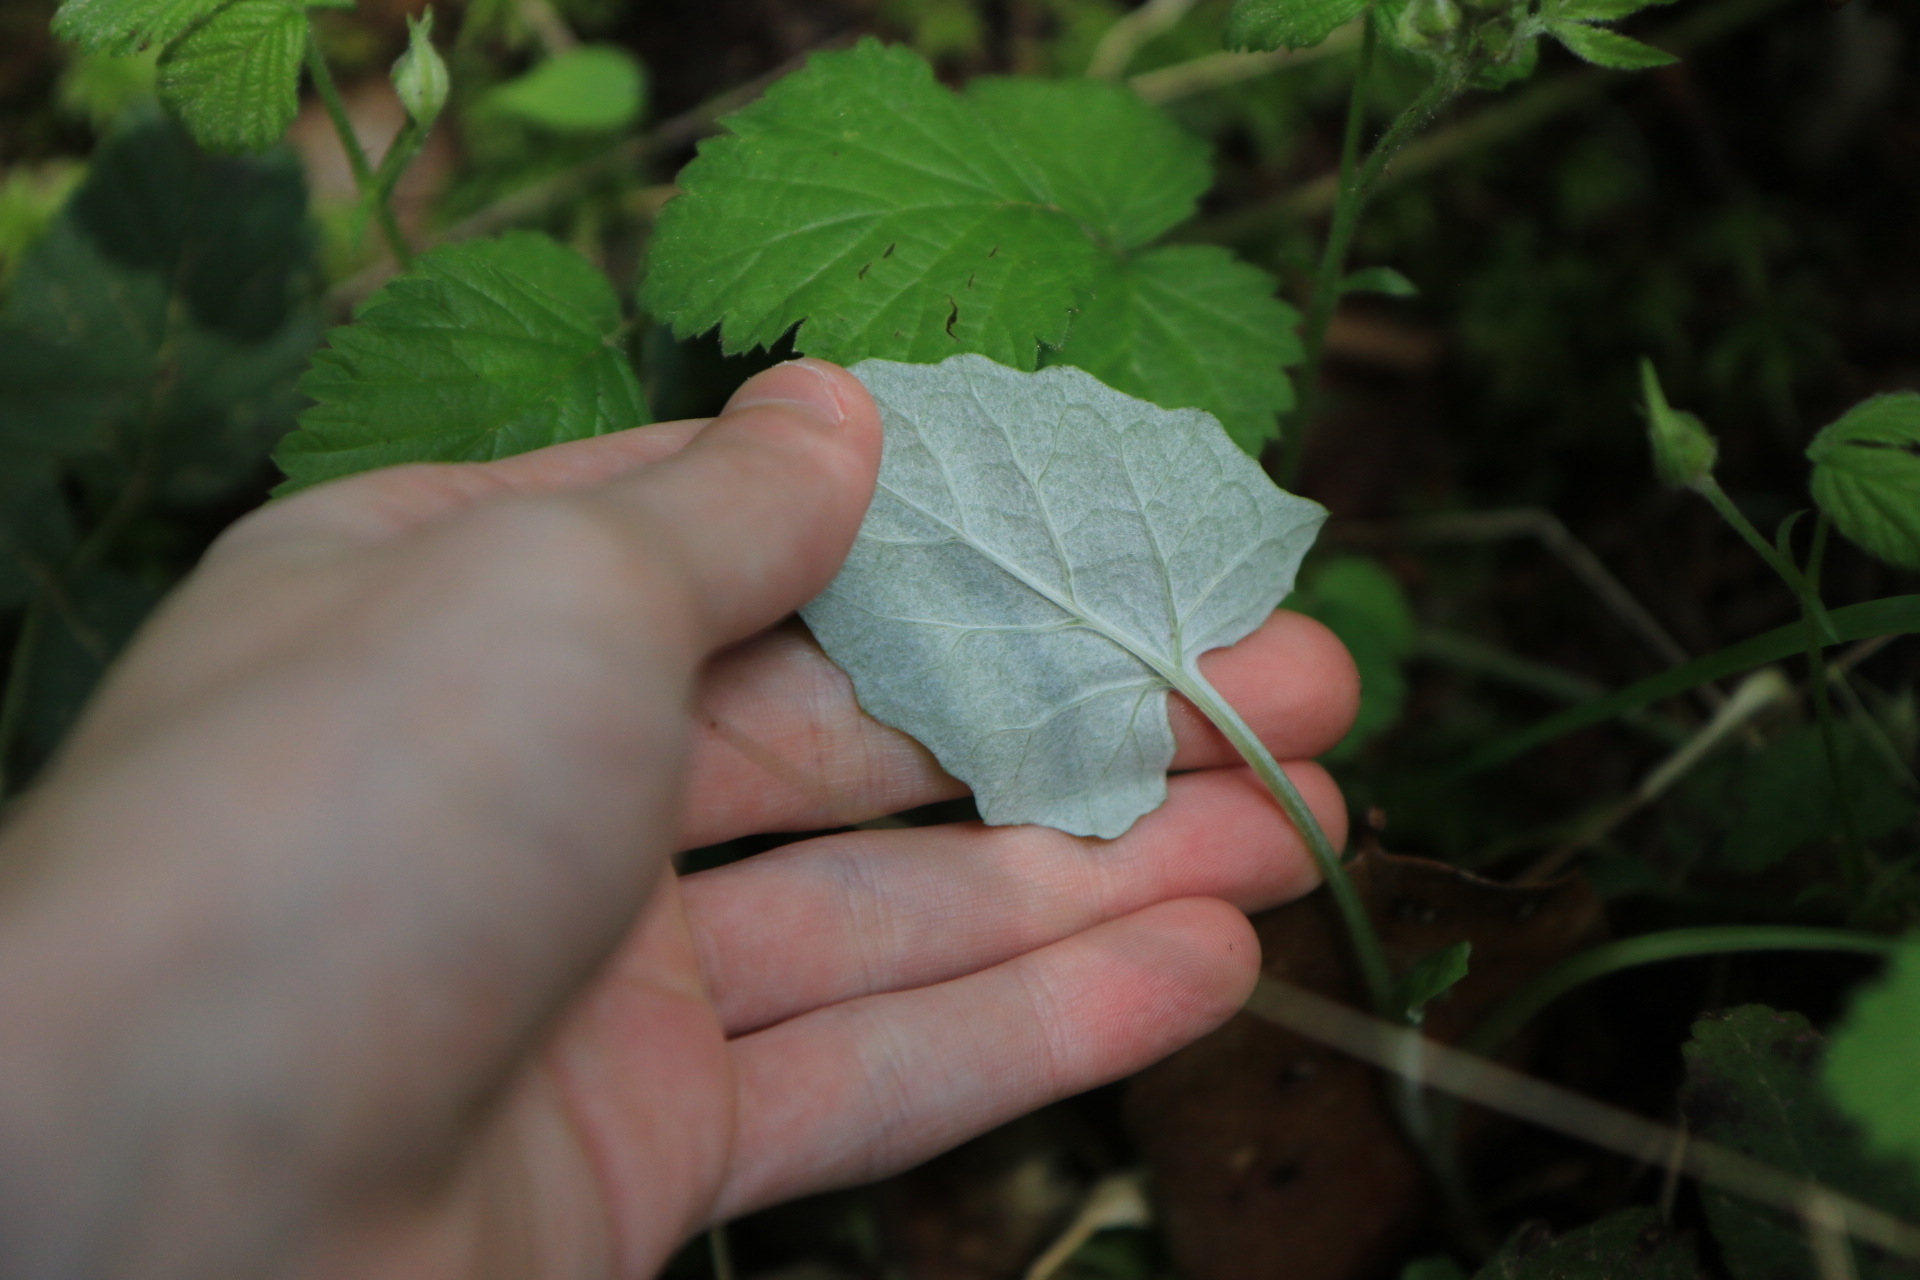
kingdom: Plantae
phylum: Tracheophyta
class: Magnoliopsida
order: Asterales
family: Asteraceae
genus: Adenocaulon
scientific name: Adenocaulon bicolor
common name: Trailplant
